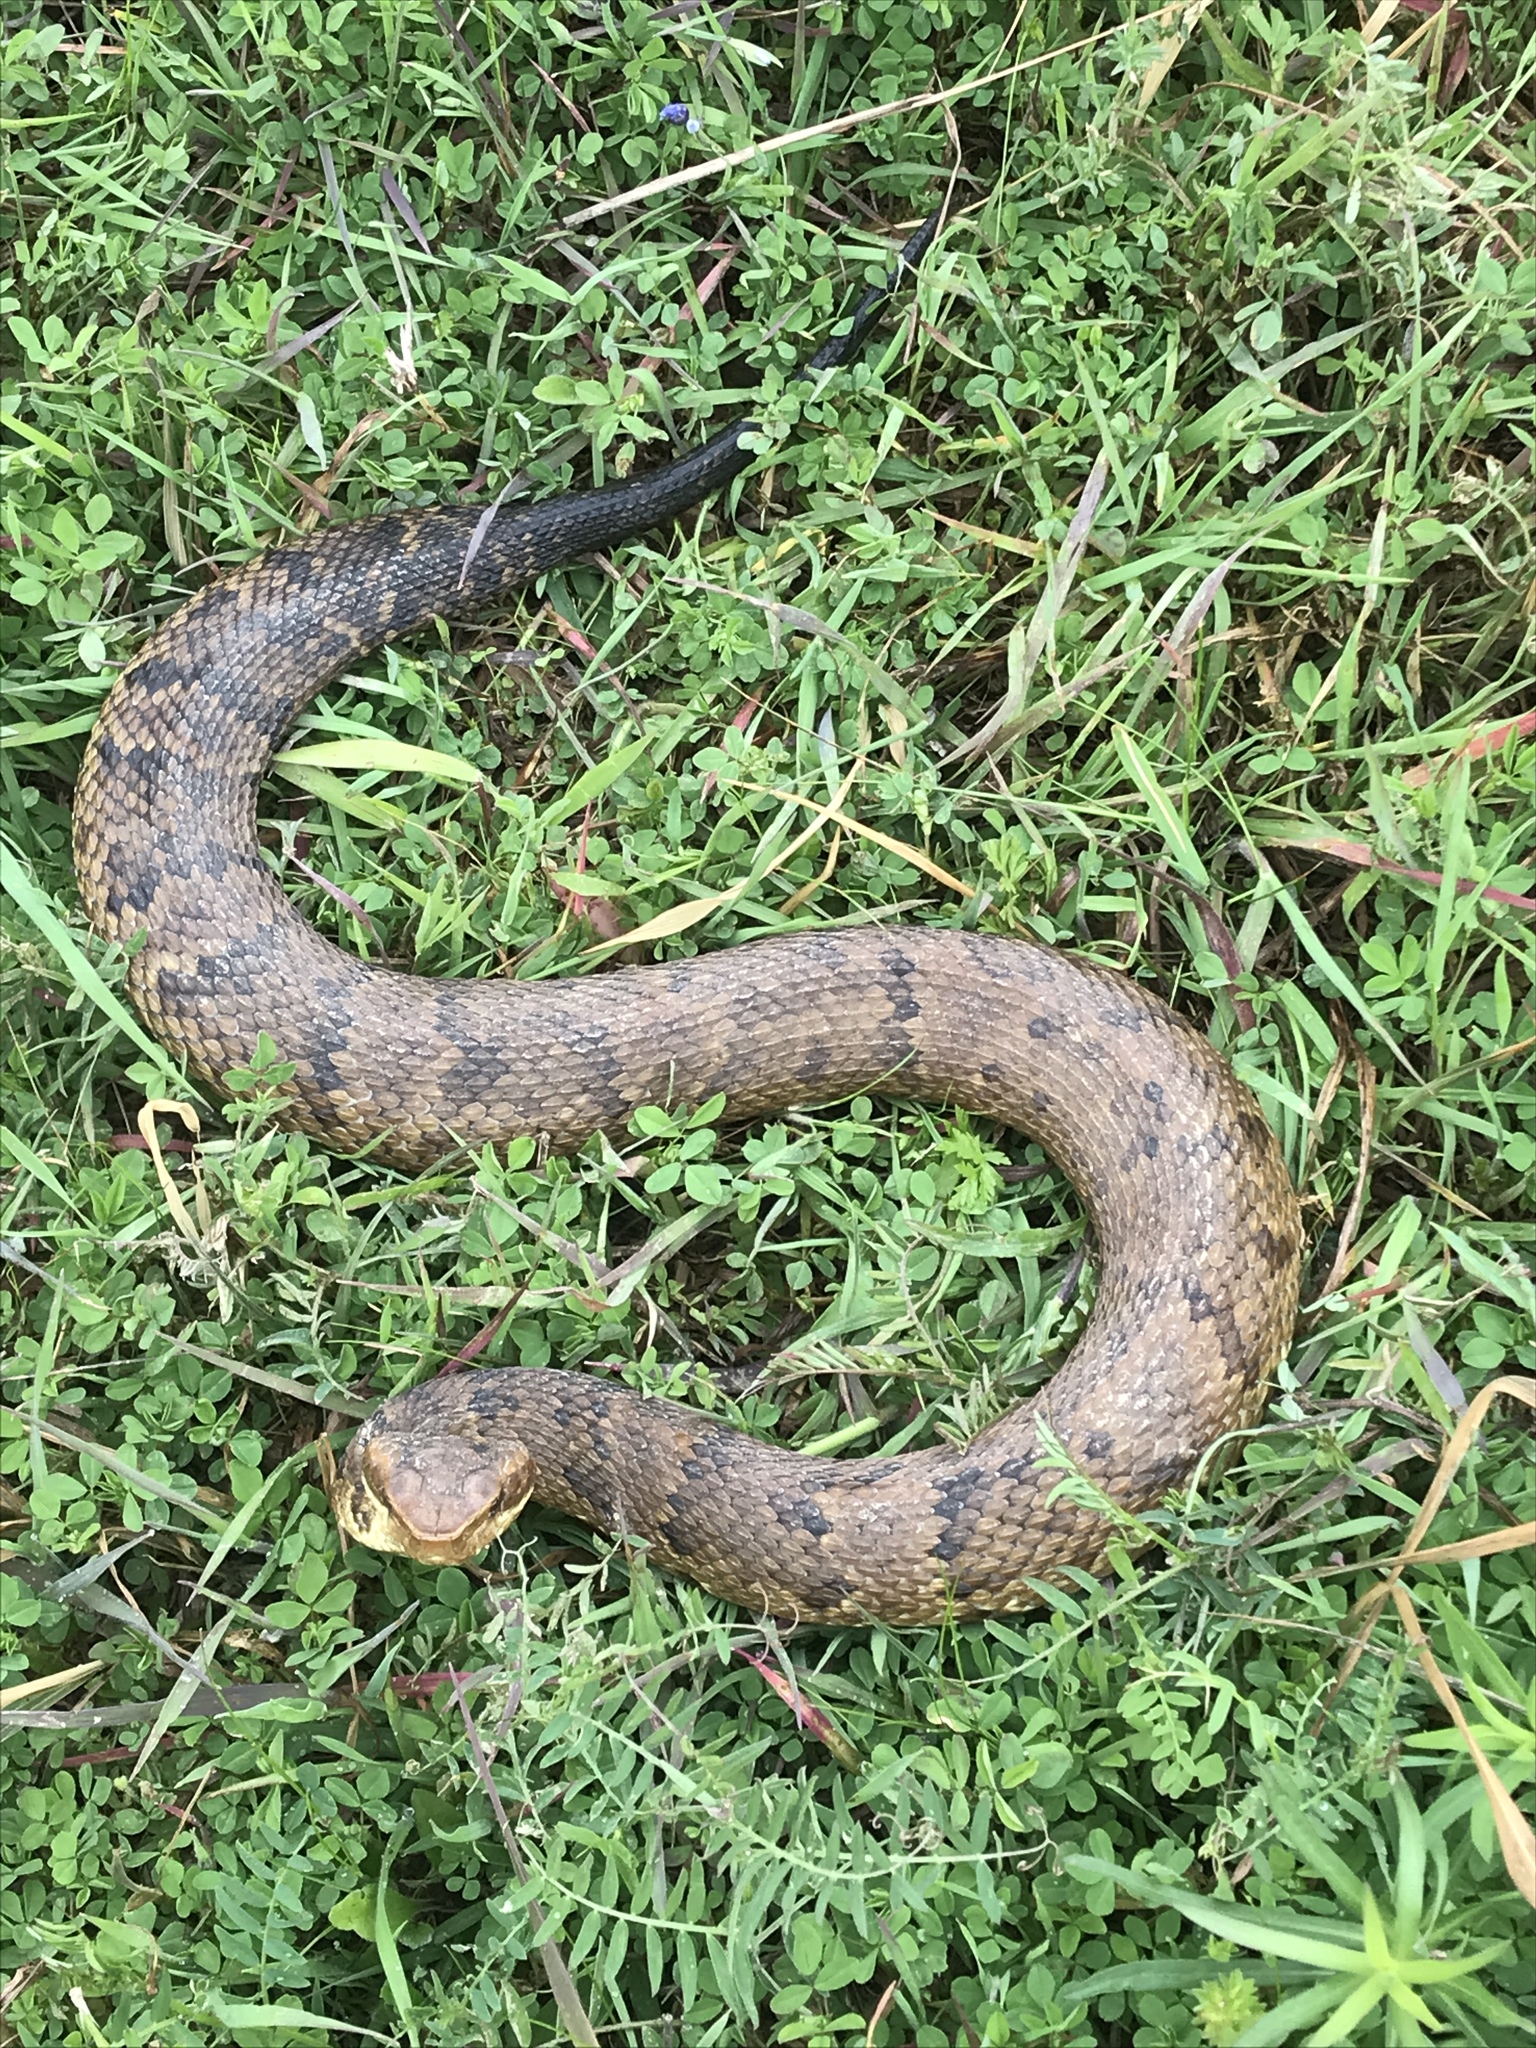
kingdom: Animalia
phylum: Chordata
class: Squamata
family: Viperidae
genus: Agkistrodon
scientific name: Agkistrodon piscivorus
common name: Cottonmouth
